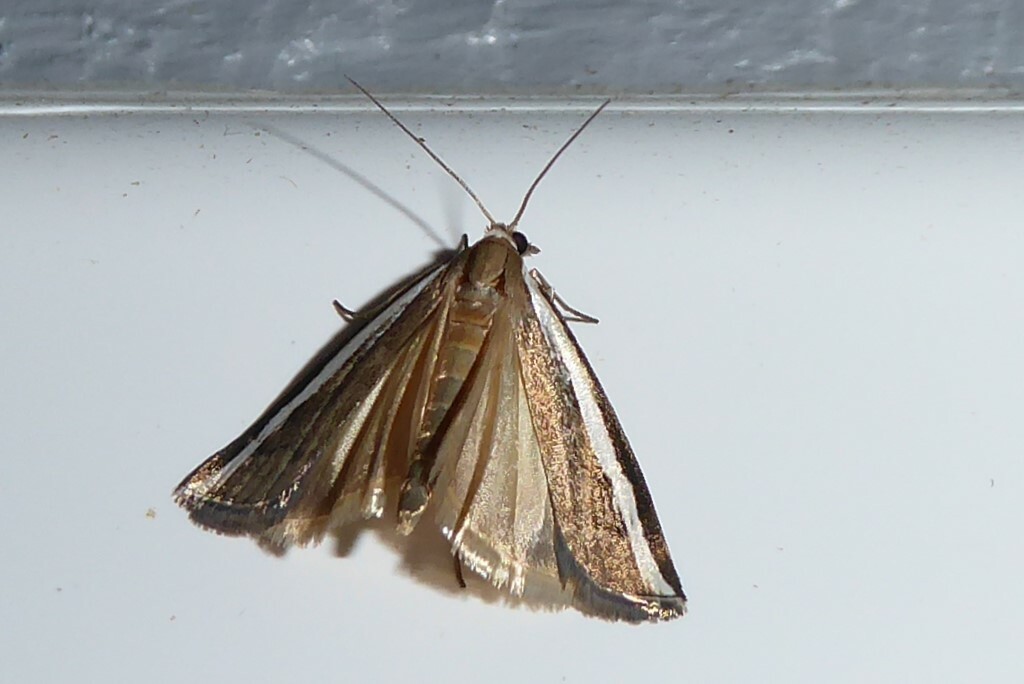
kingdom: Animalia
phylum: Arthropoda
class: Insecta
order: Lepidoptera
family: Crambidae
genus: Orocrambus
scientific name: Orocrambus flexuosellus
